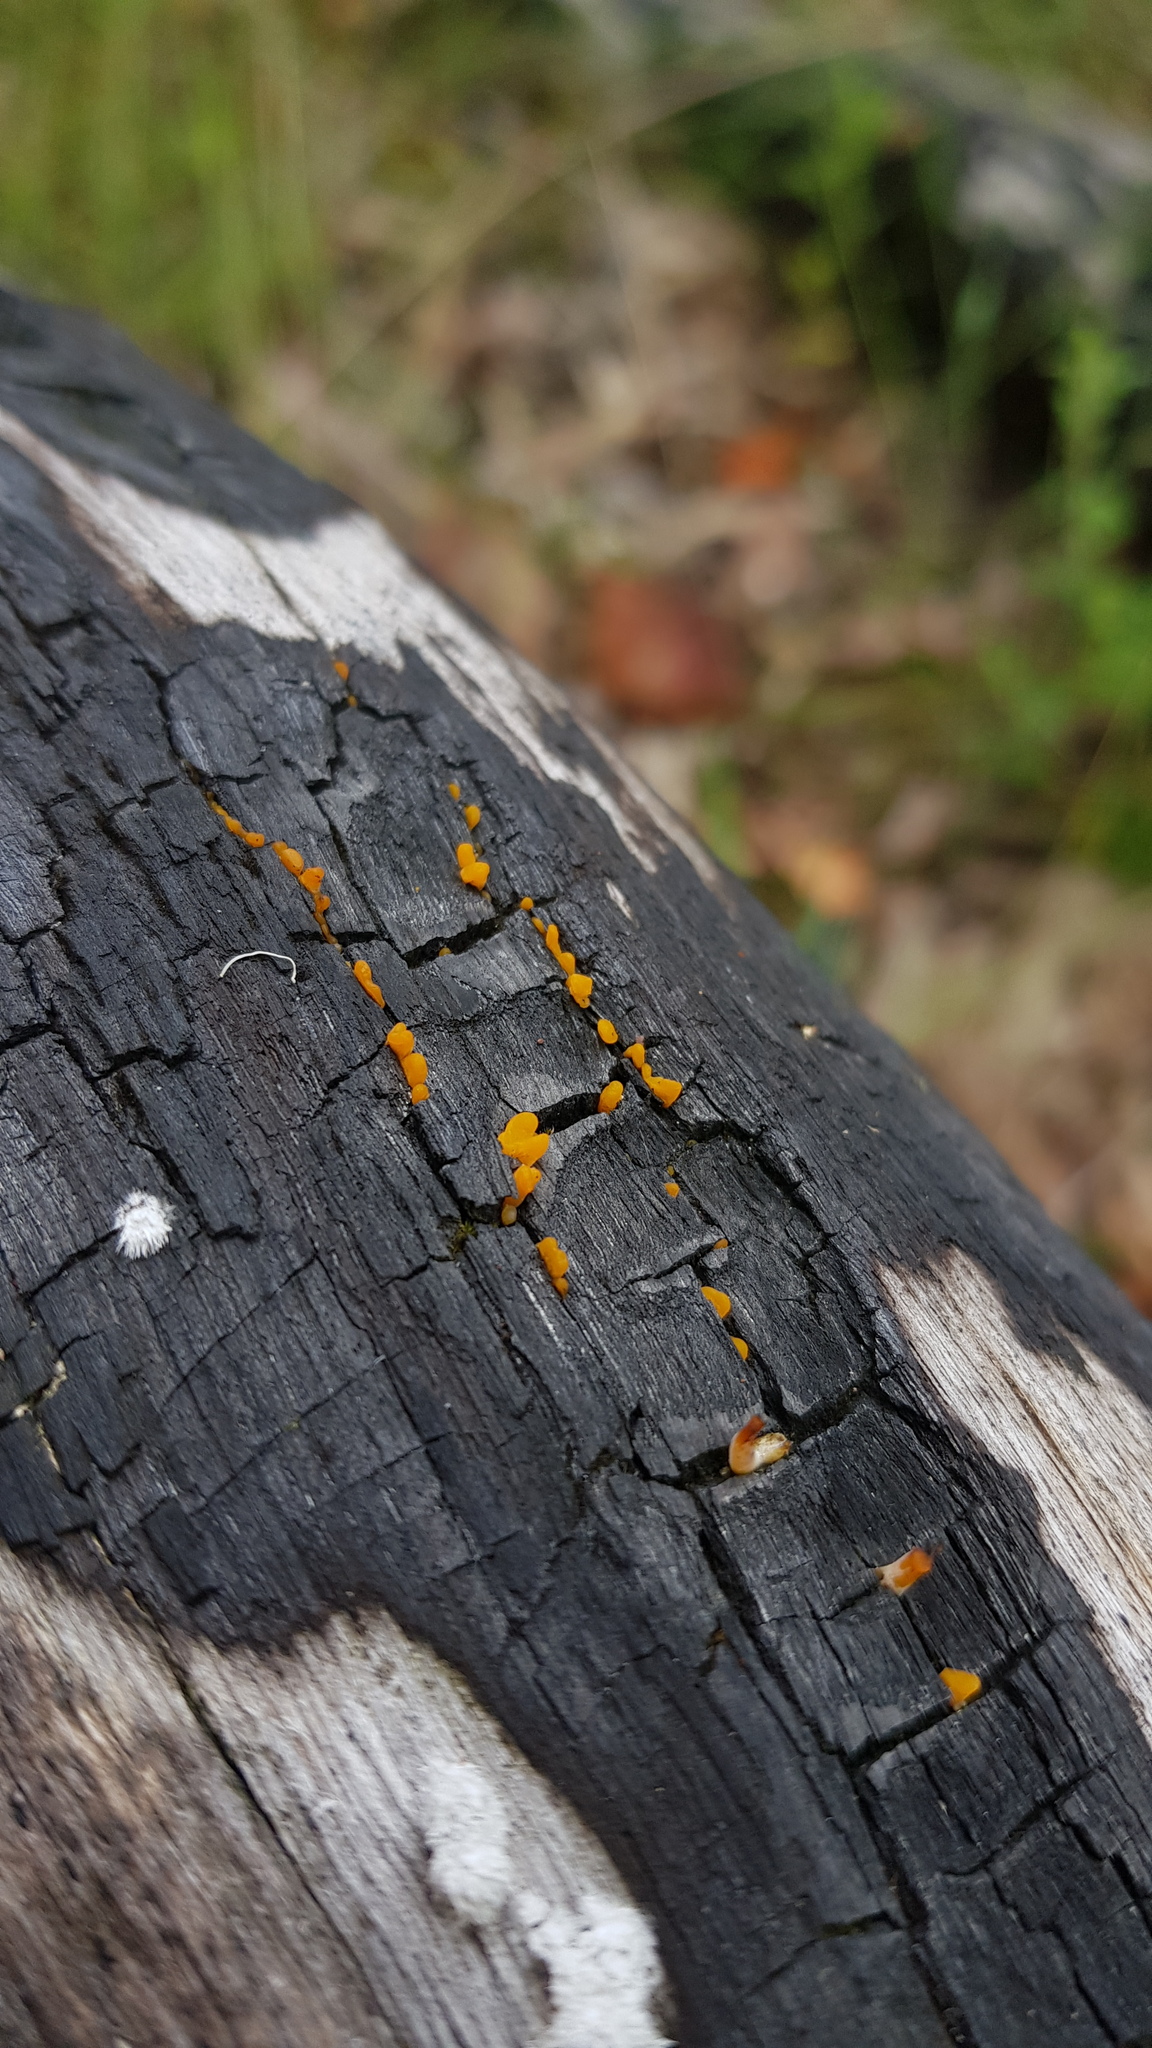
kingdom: Fungi
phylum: Basidiomycota
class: Dacrymycetes
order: Dacrymycetales
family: Dacrymycetaceae
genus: Dacrymyces
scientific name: Dacrymyces spathularius
